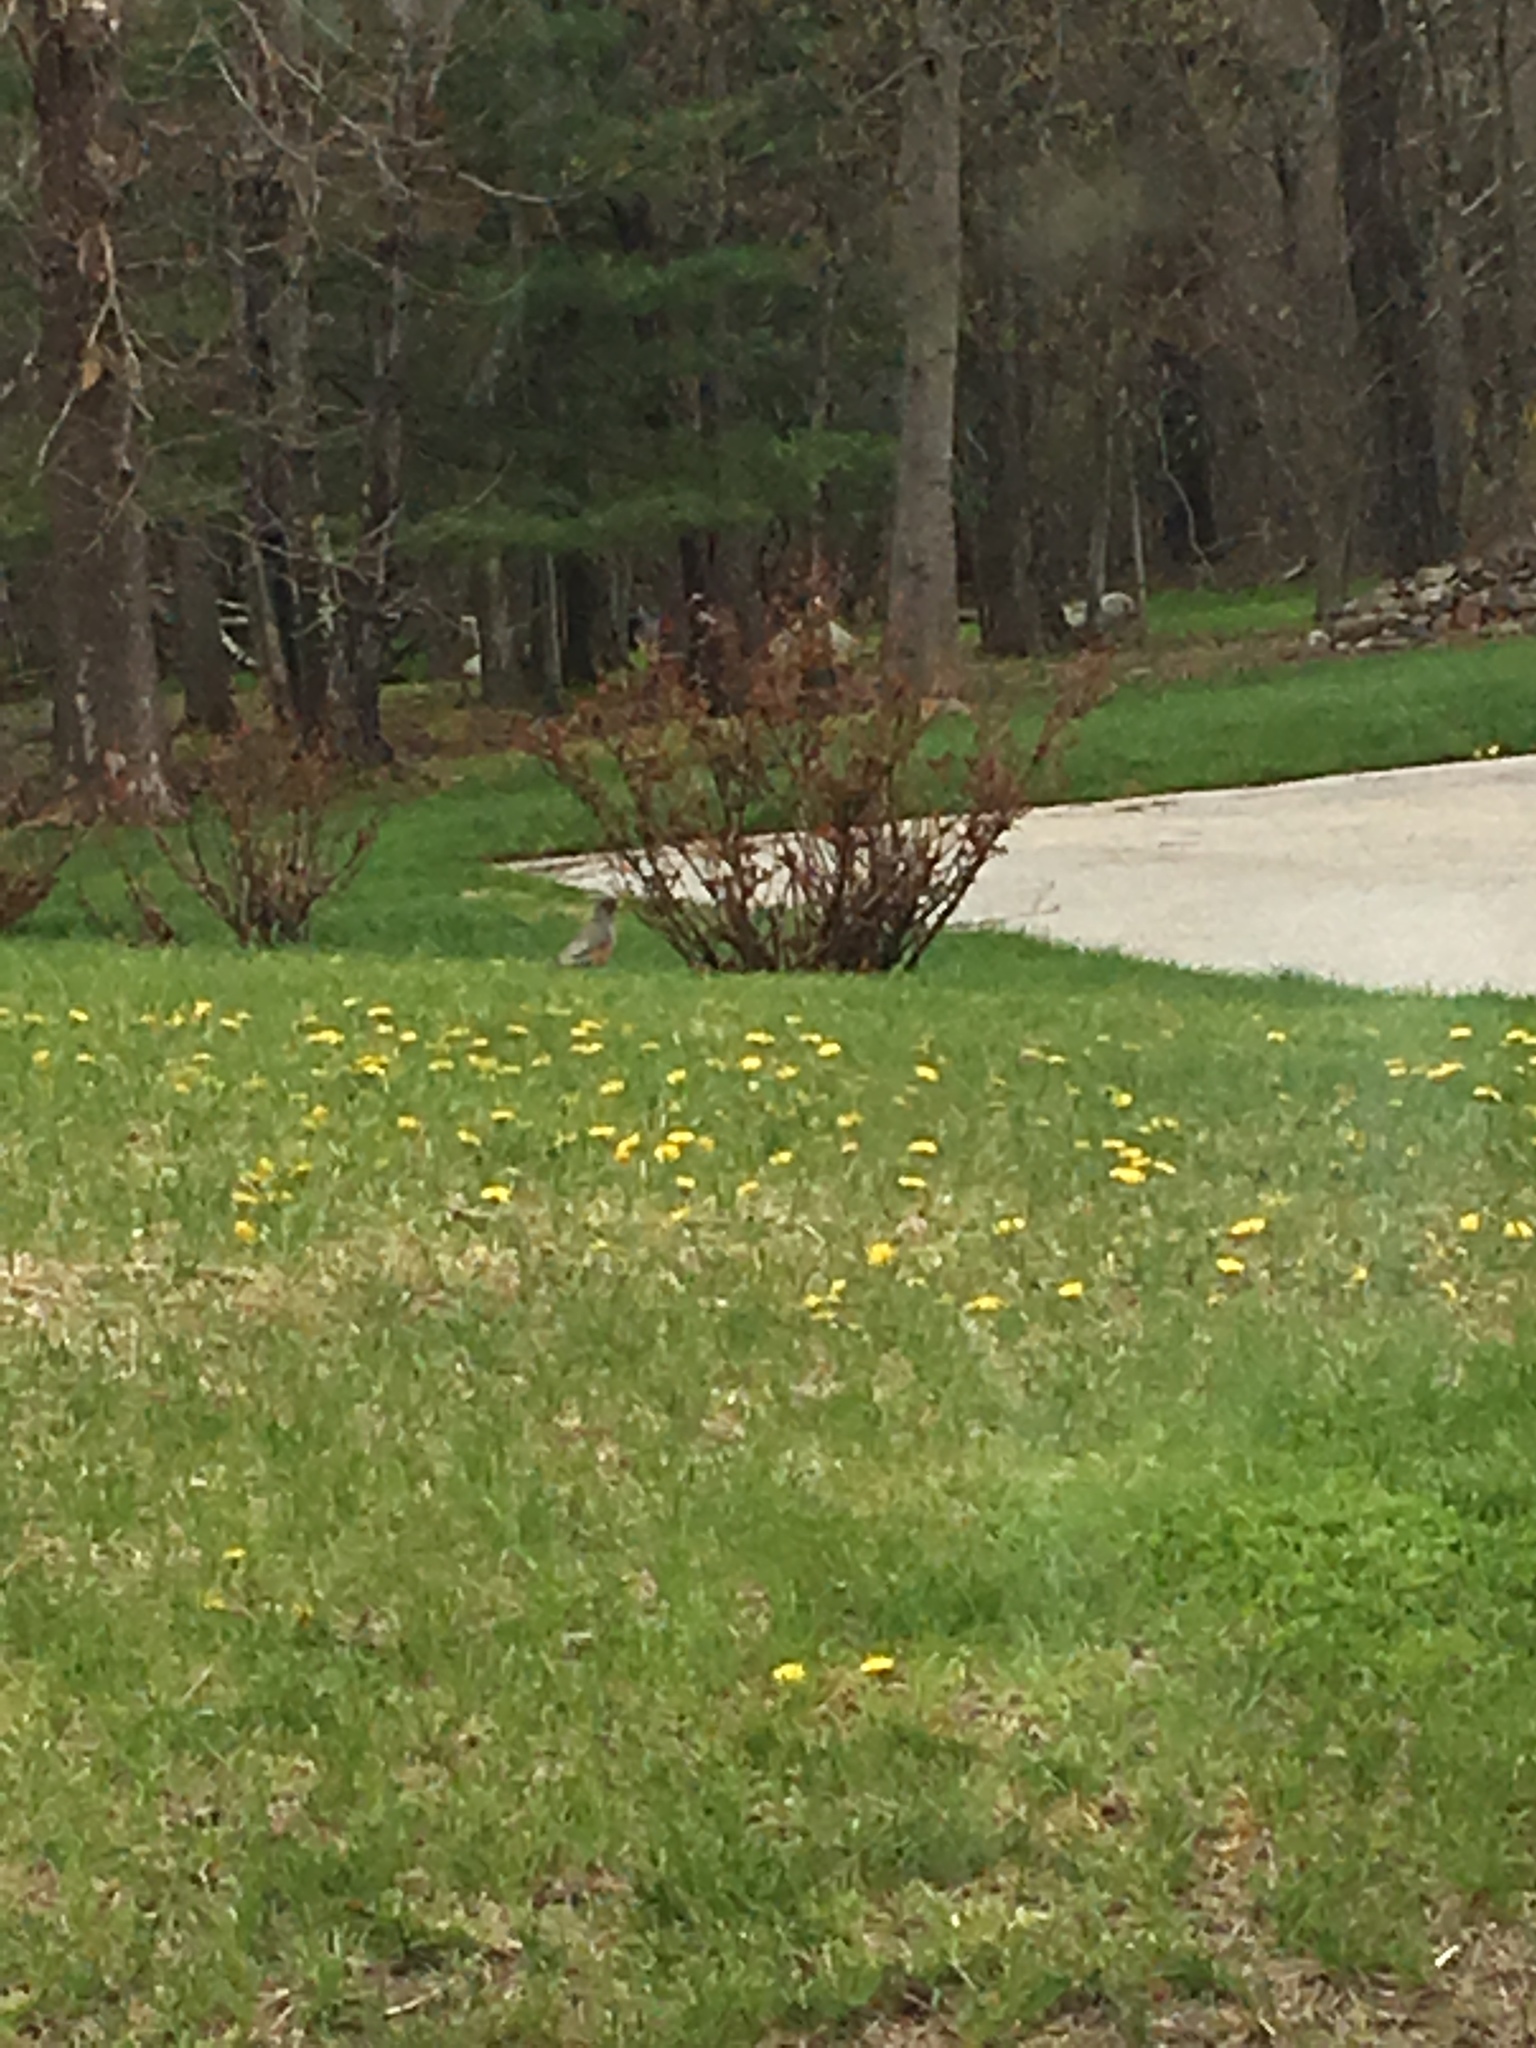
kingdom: Animalia
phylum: Chordata
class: Aves
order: Passeriformes
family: Turdidae
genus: Turdus
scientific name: Turdus migratorius
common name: American robin
